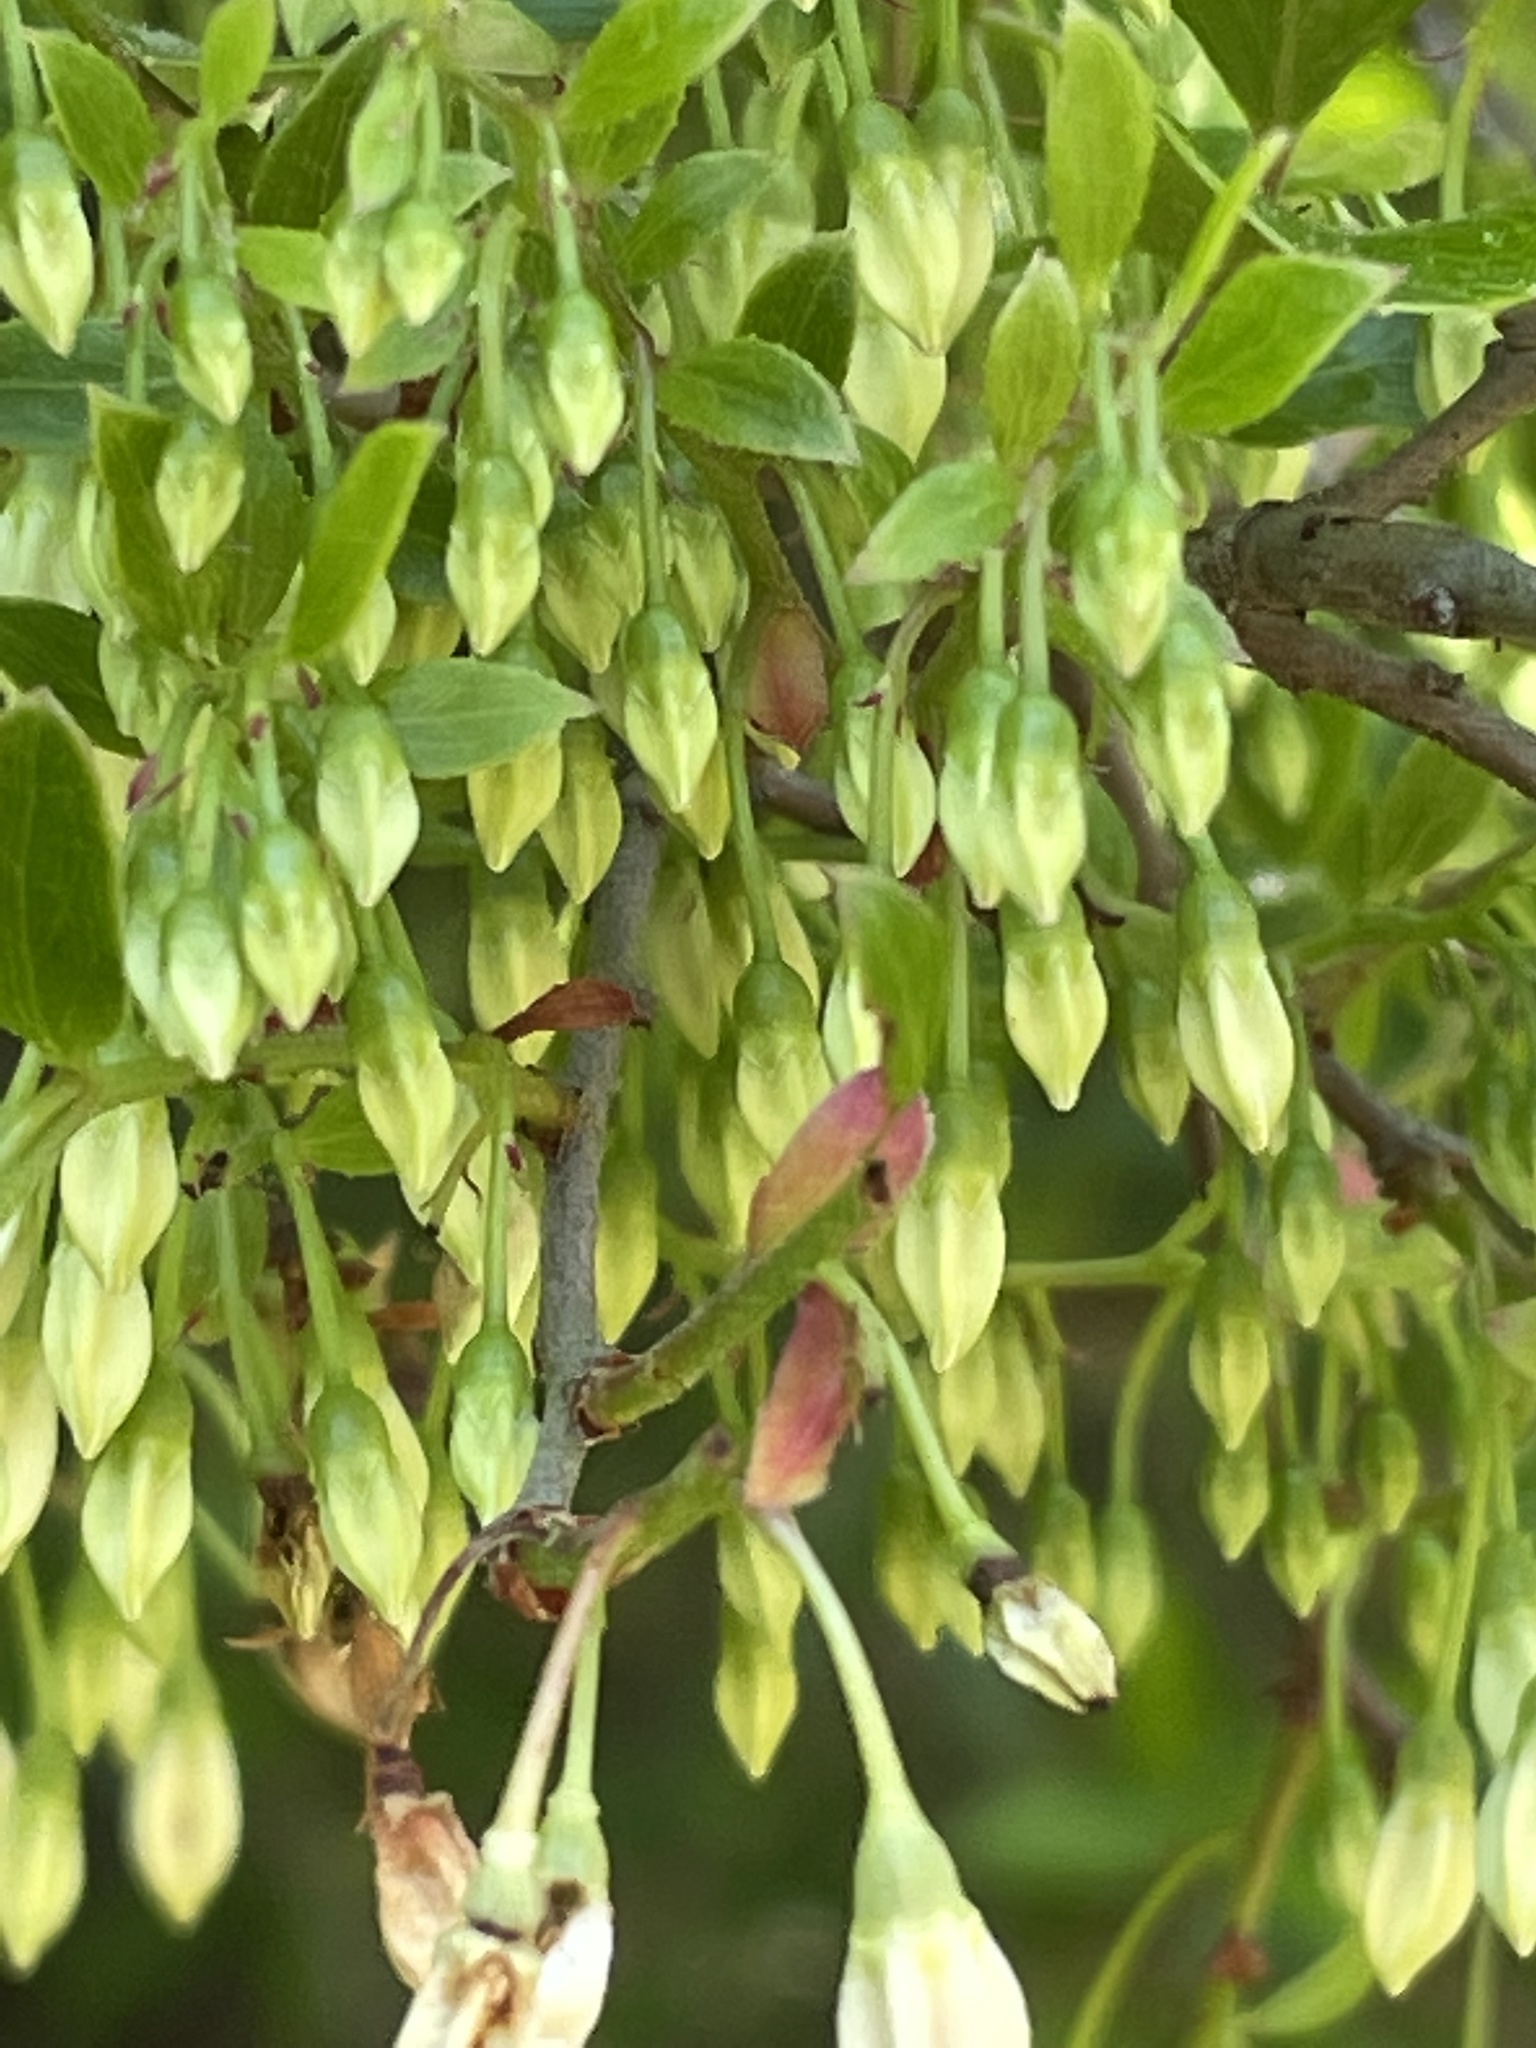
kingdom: Plantae
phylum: Tracheophyta
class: Magnoliopsida
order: Ericales
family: Ericaceae
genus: Vaccinium
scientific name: Vaccinium arboreum
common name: Farkleberry
